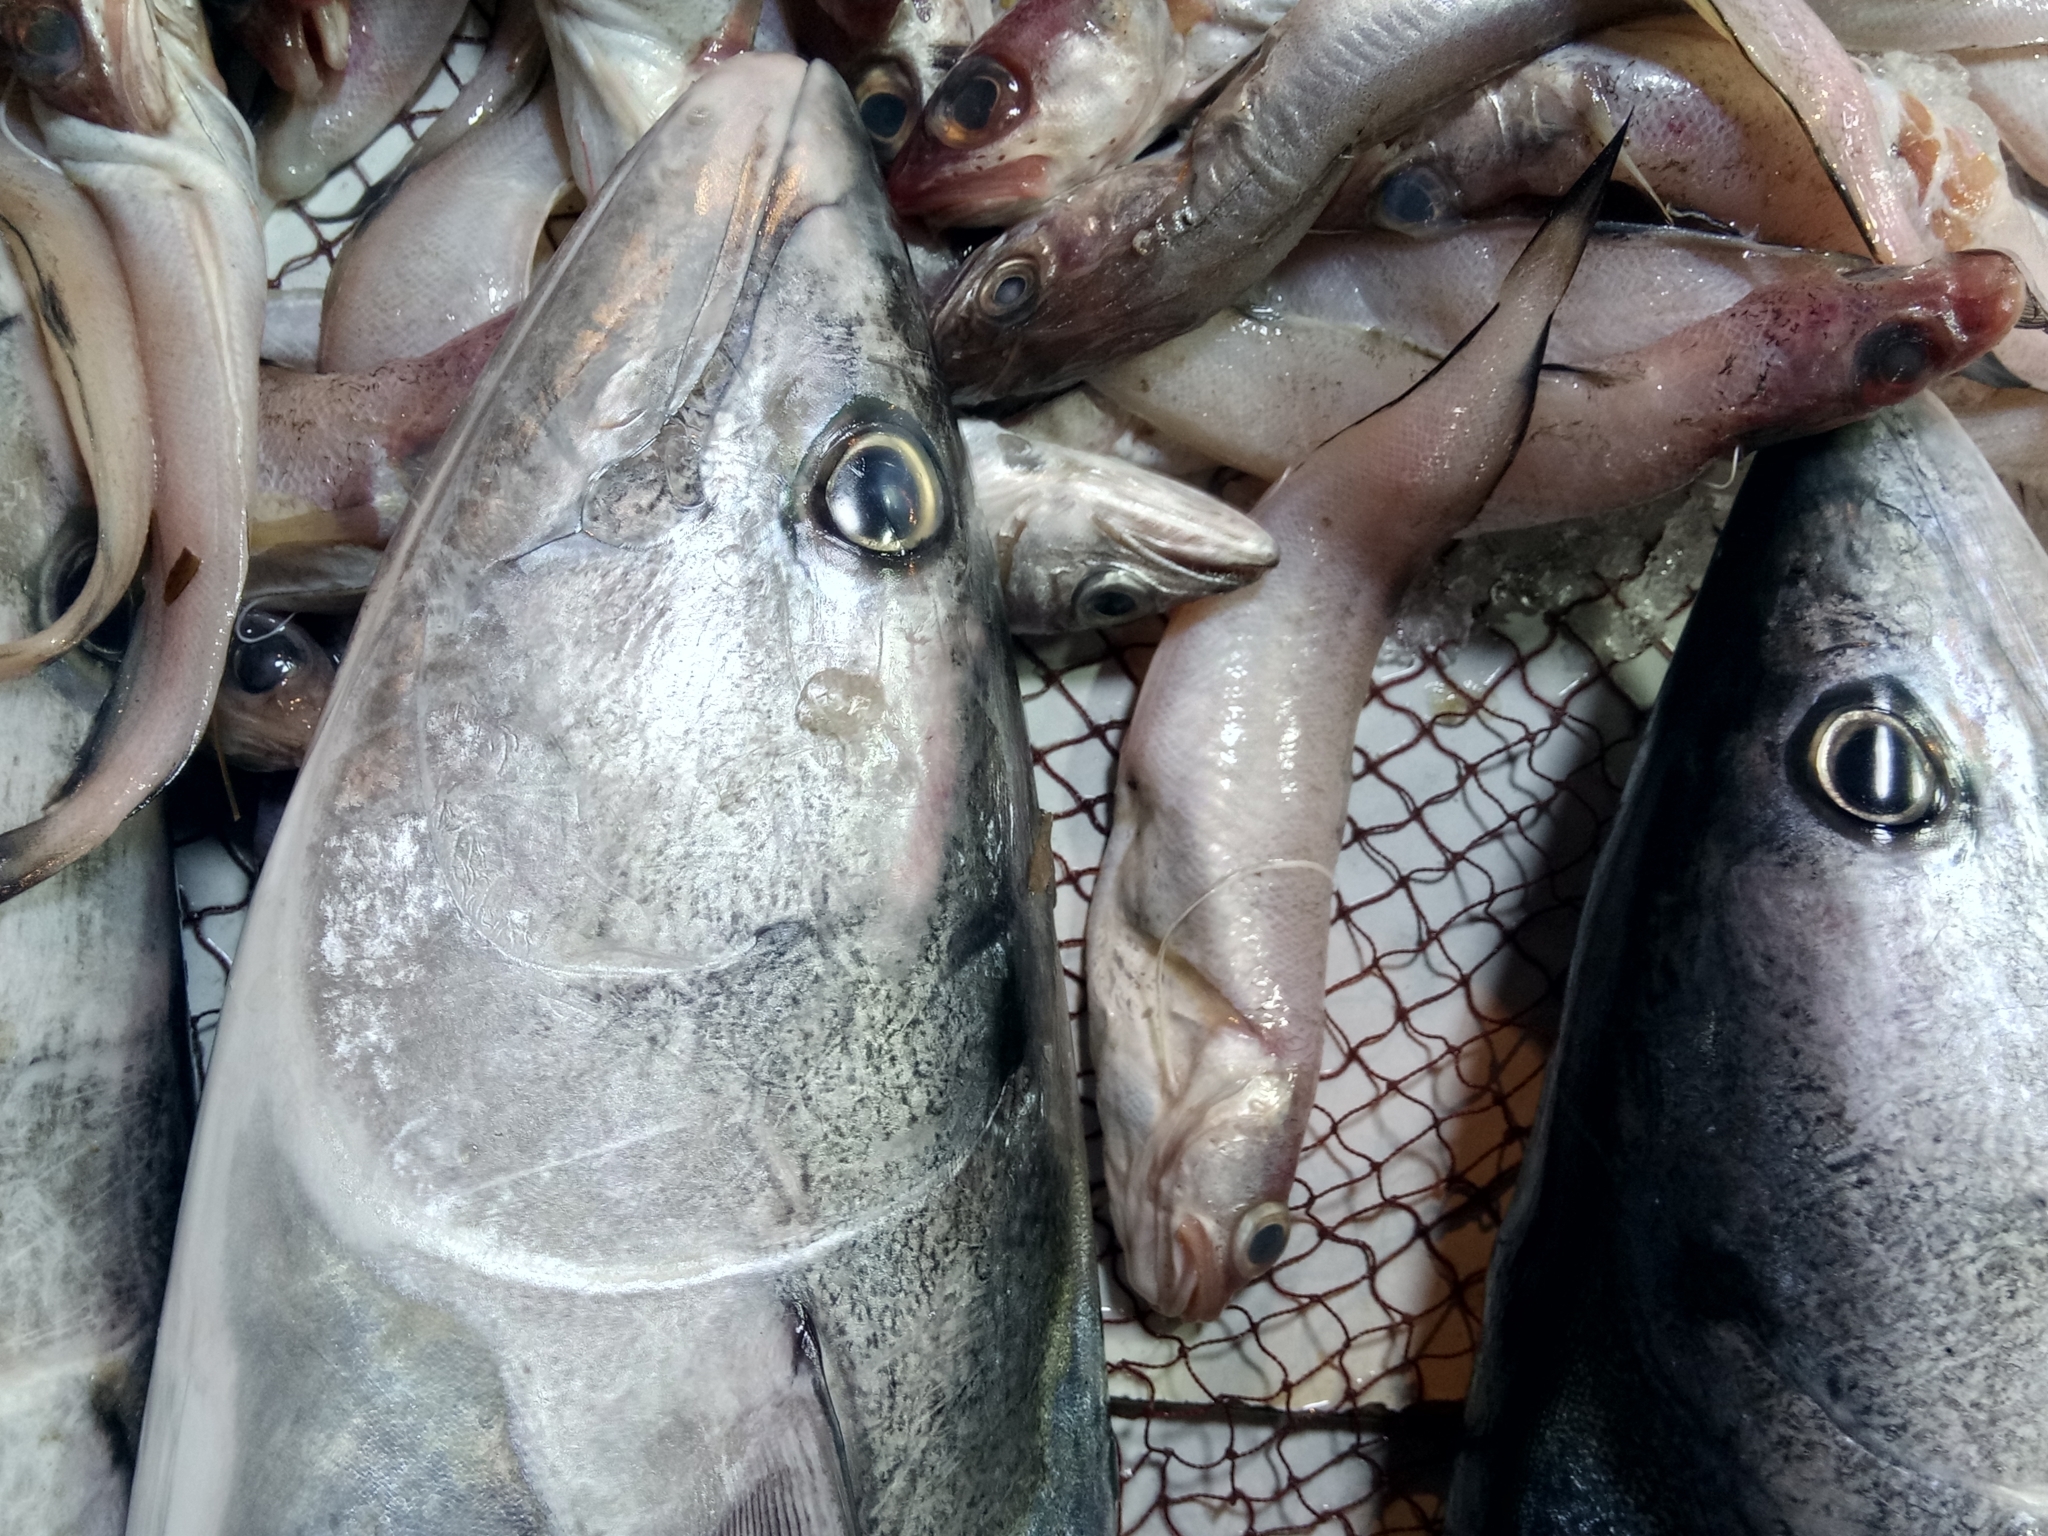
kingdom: Animalia
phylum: Chordata
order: Perciformes
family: Scombridae
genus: Sarda
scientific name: Sarda sarda
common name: Atlantic bonito
